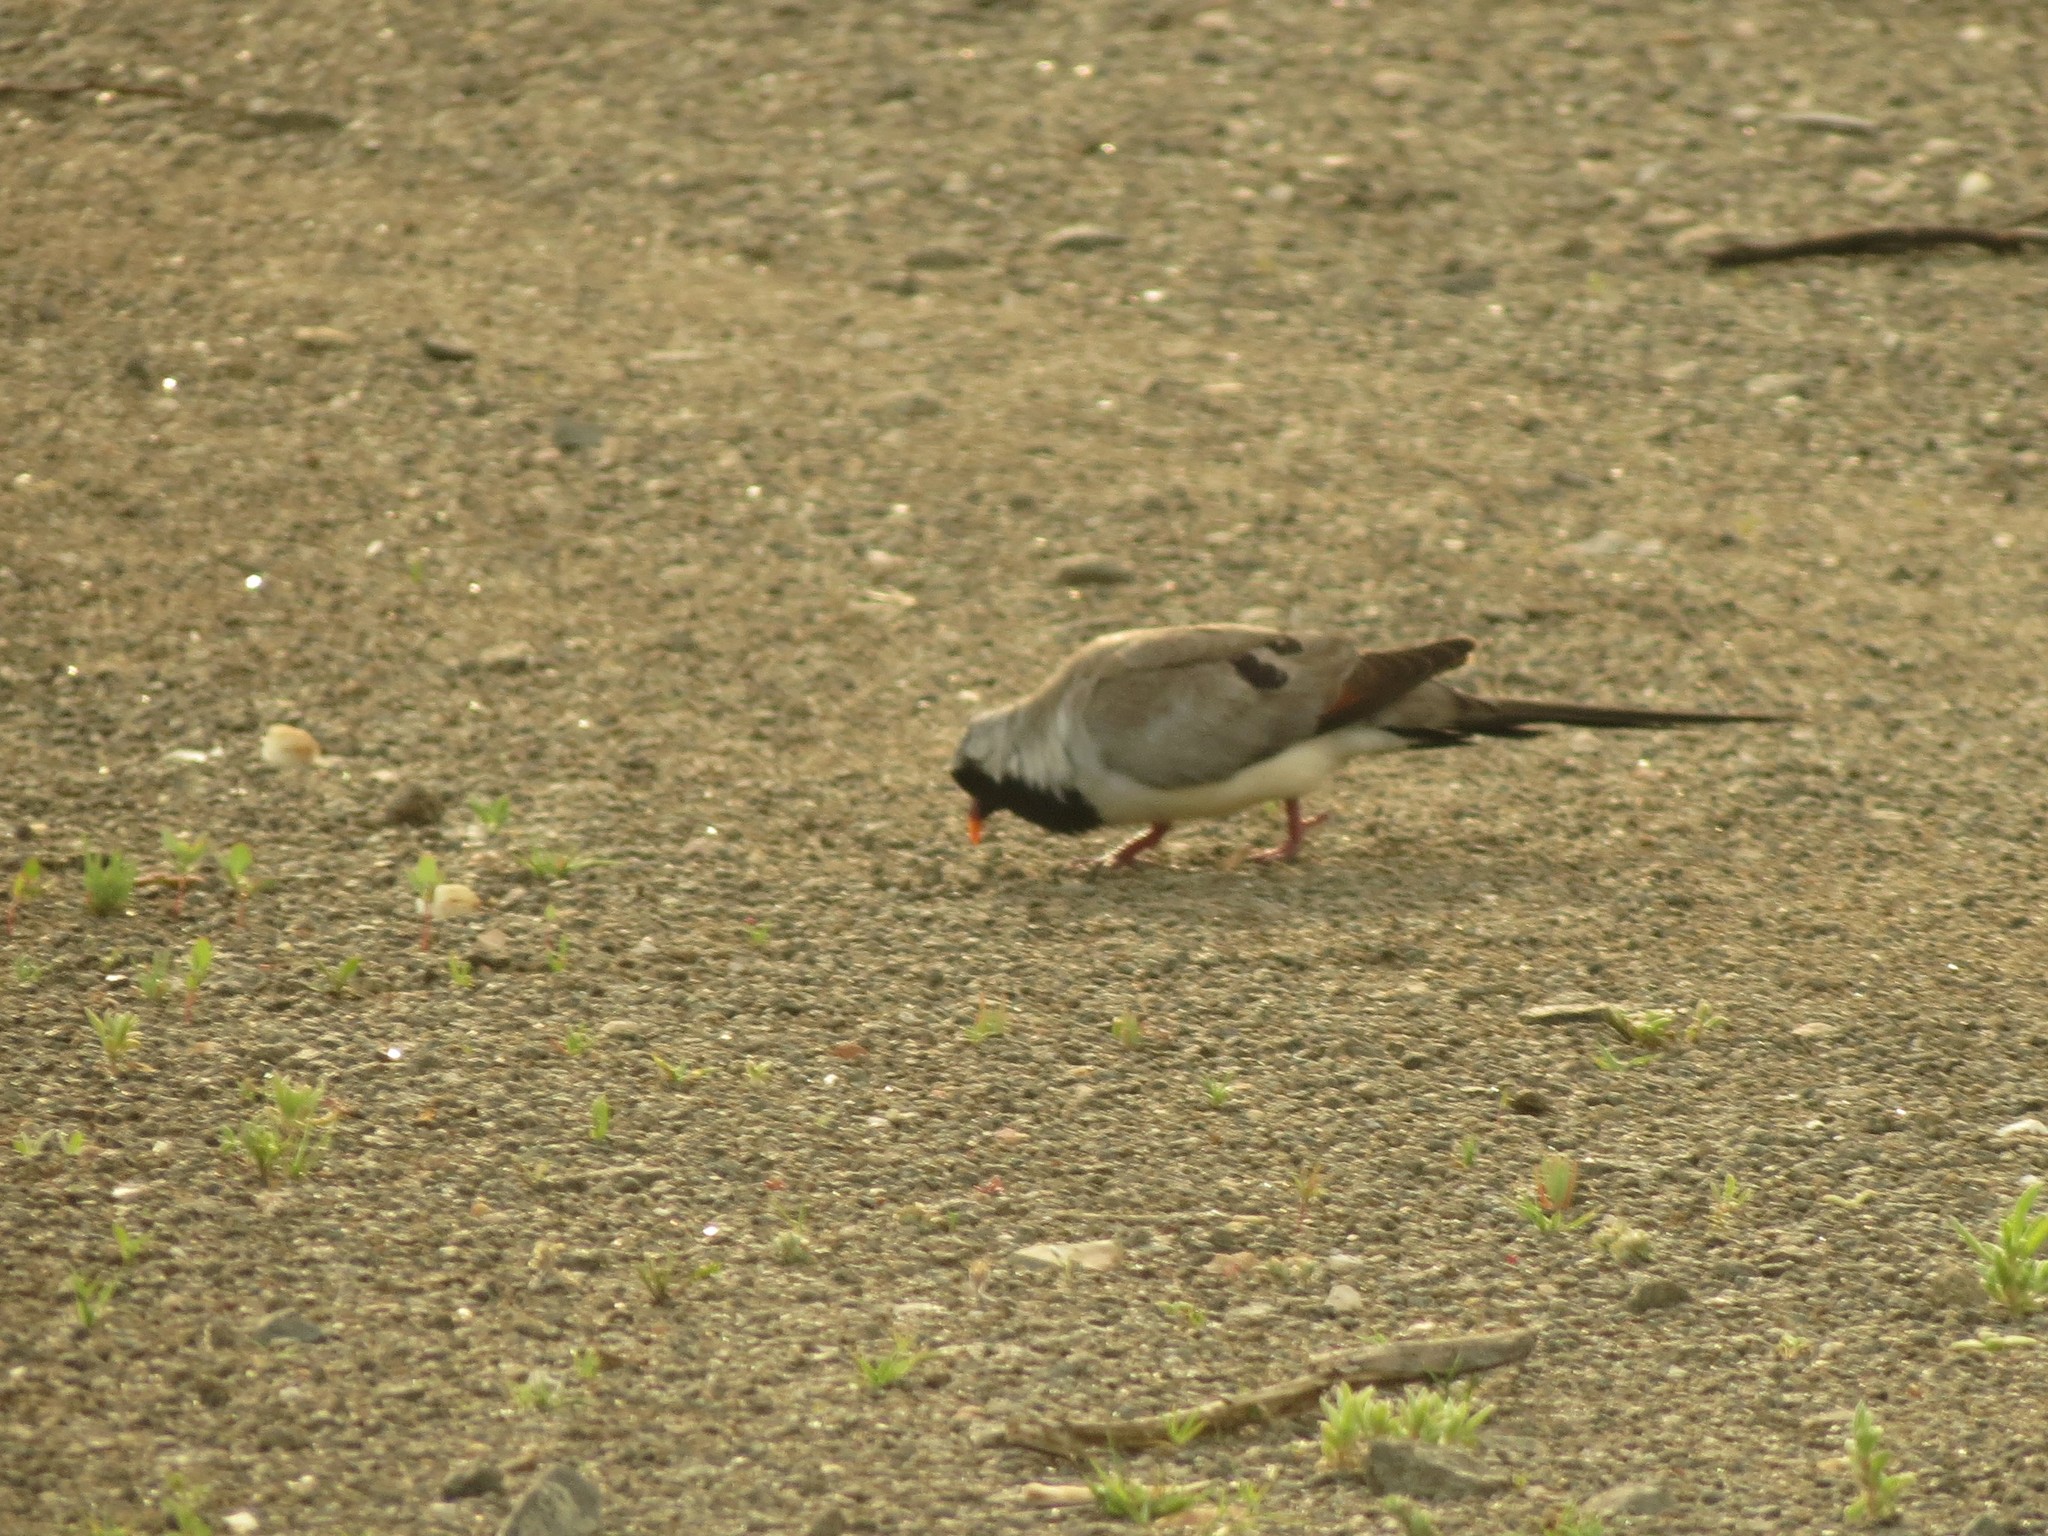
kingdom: Animalia
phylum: Chordata
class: Aves
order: Columbiformes
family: Columbidae
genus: Oena
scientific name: Oena capensis
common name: Namaqua dove
